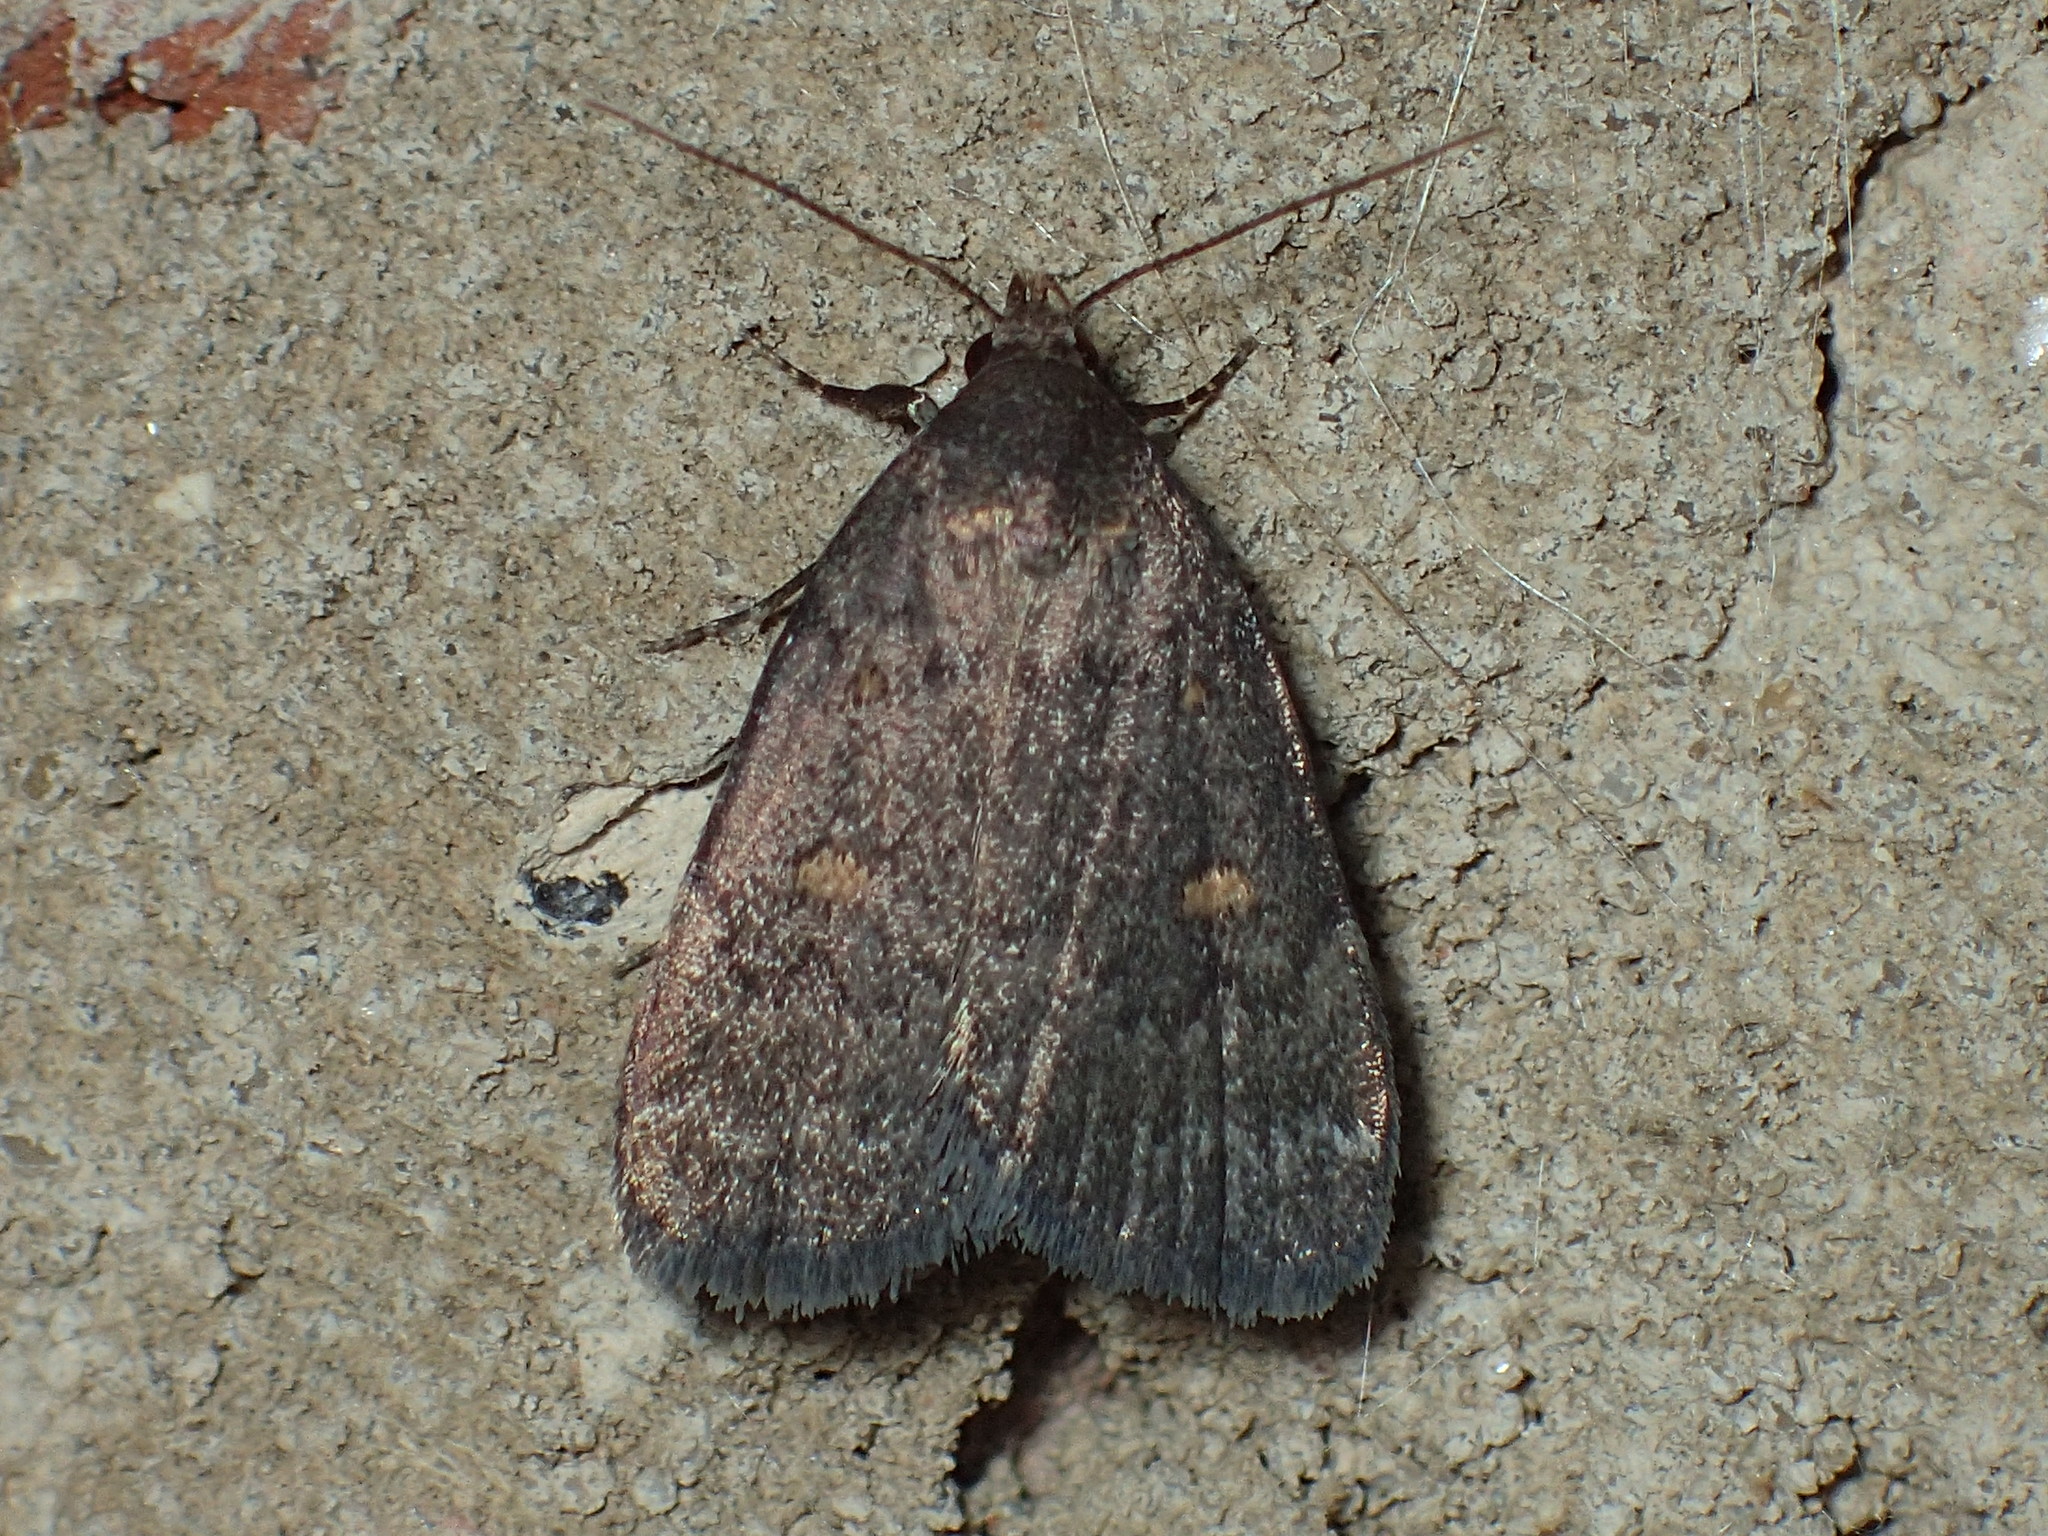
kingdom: Animalia
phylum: Arthropoda
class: Insecta
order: Lepidoptera
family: Erebidae
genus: Idia
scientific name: Idia diminuendis
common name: Orange-spotted idia moth
